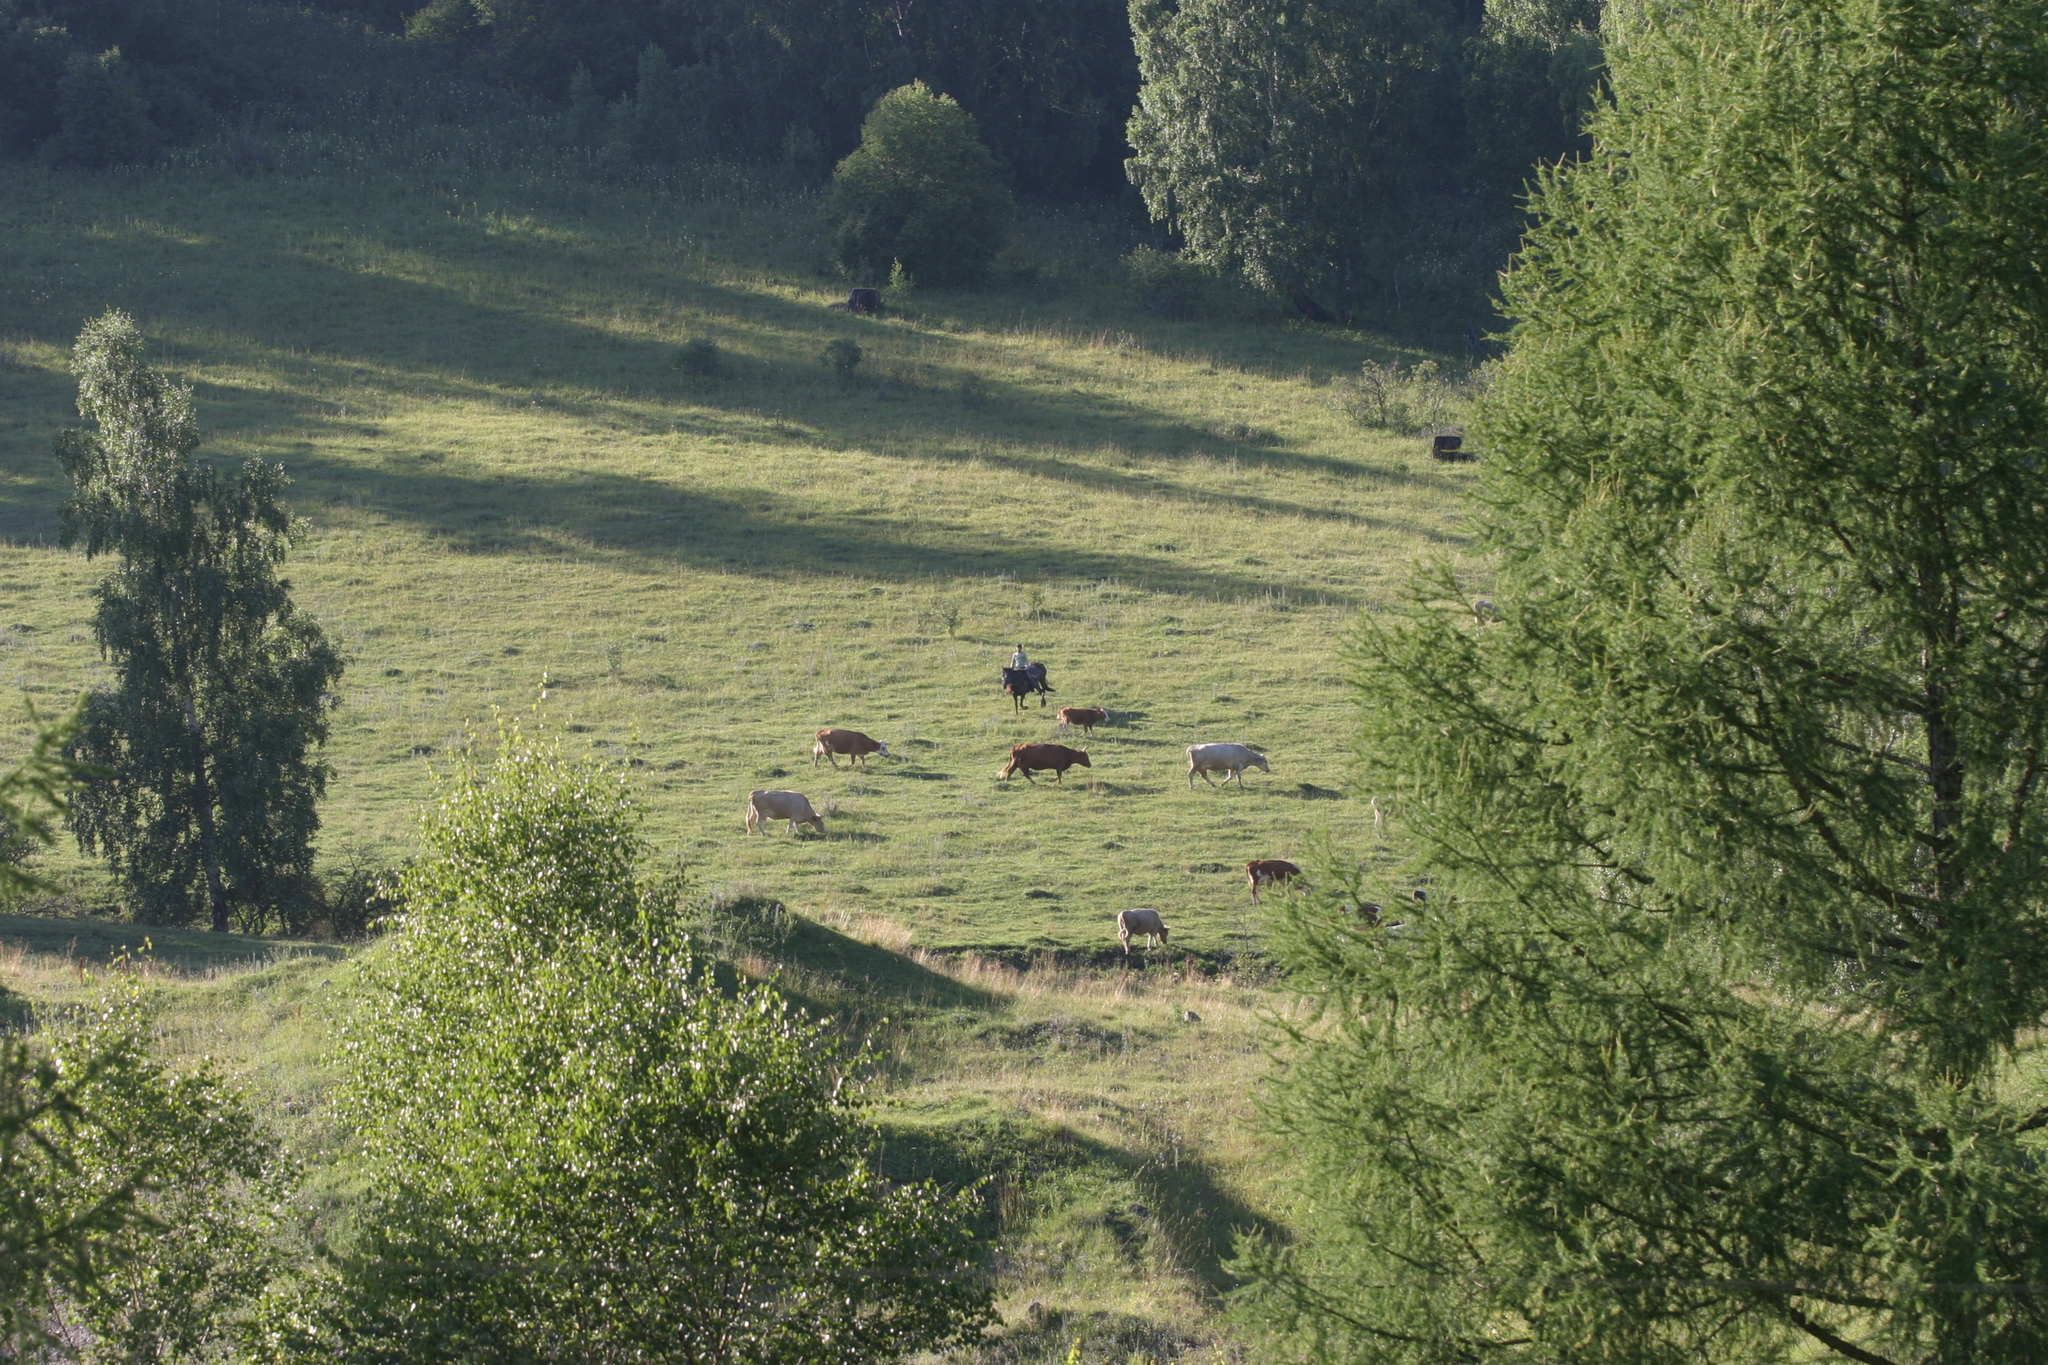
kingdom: Plantae
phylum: Tracheophyta
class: Pinopsida
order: Pinales
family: Pinaceae
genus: Larix
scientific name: Larix sibirica
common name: Siberian larch
